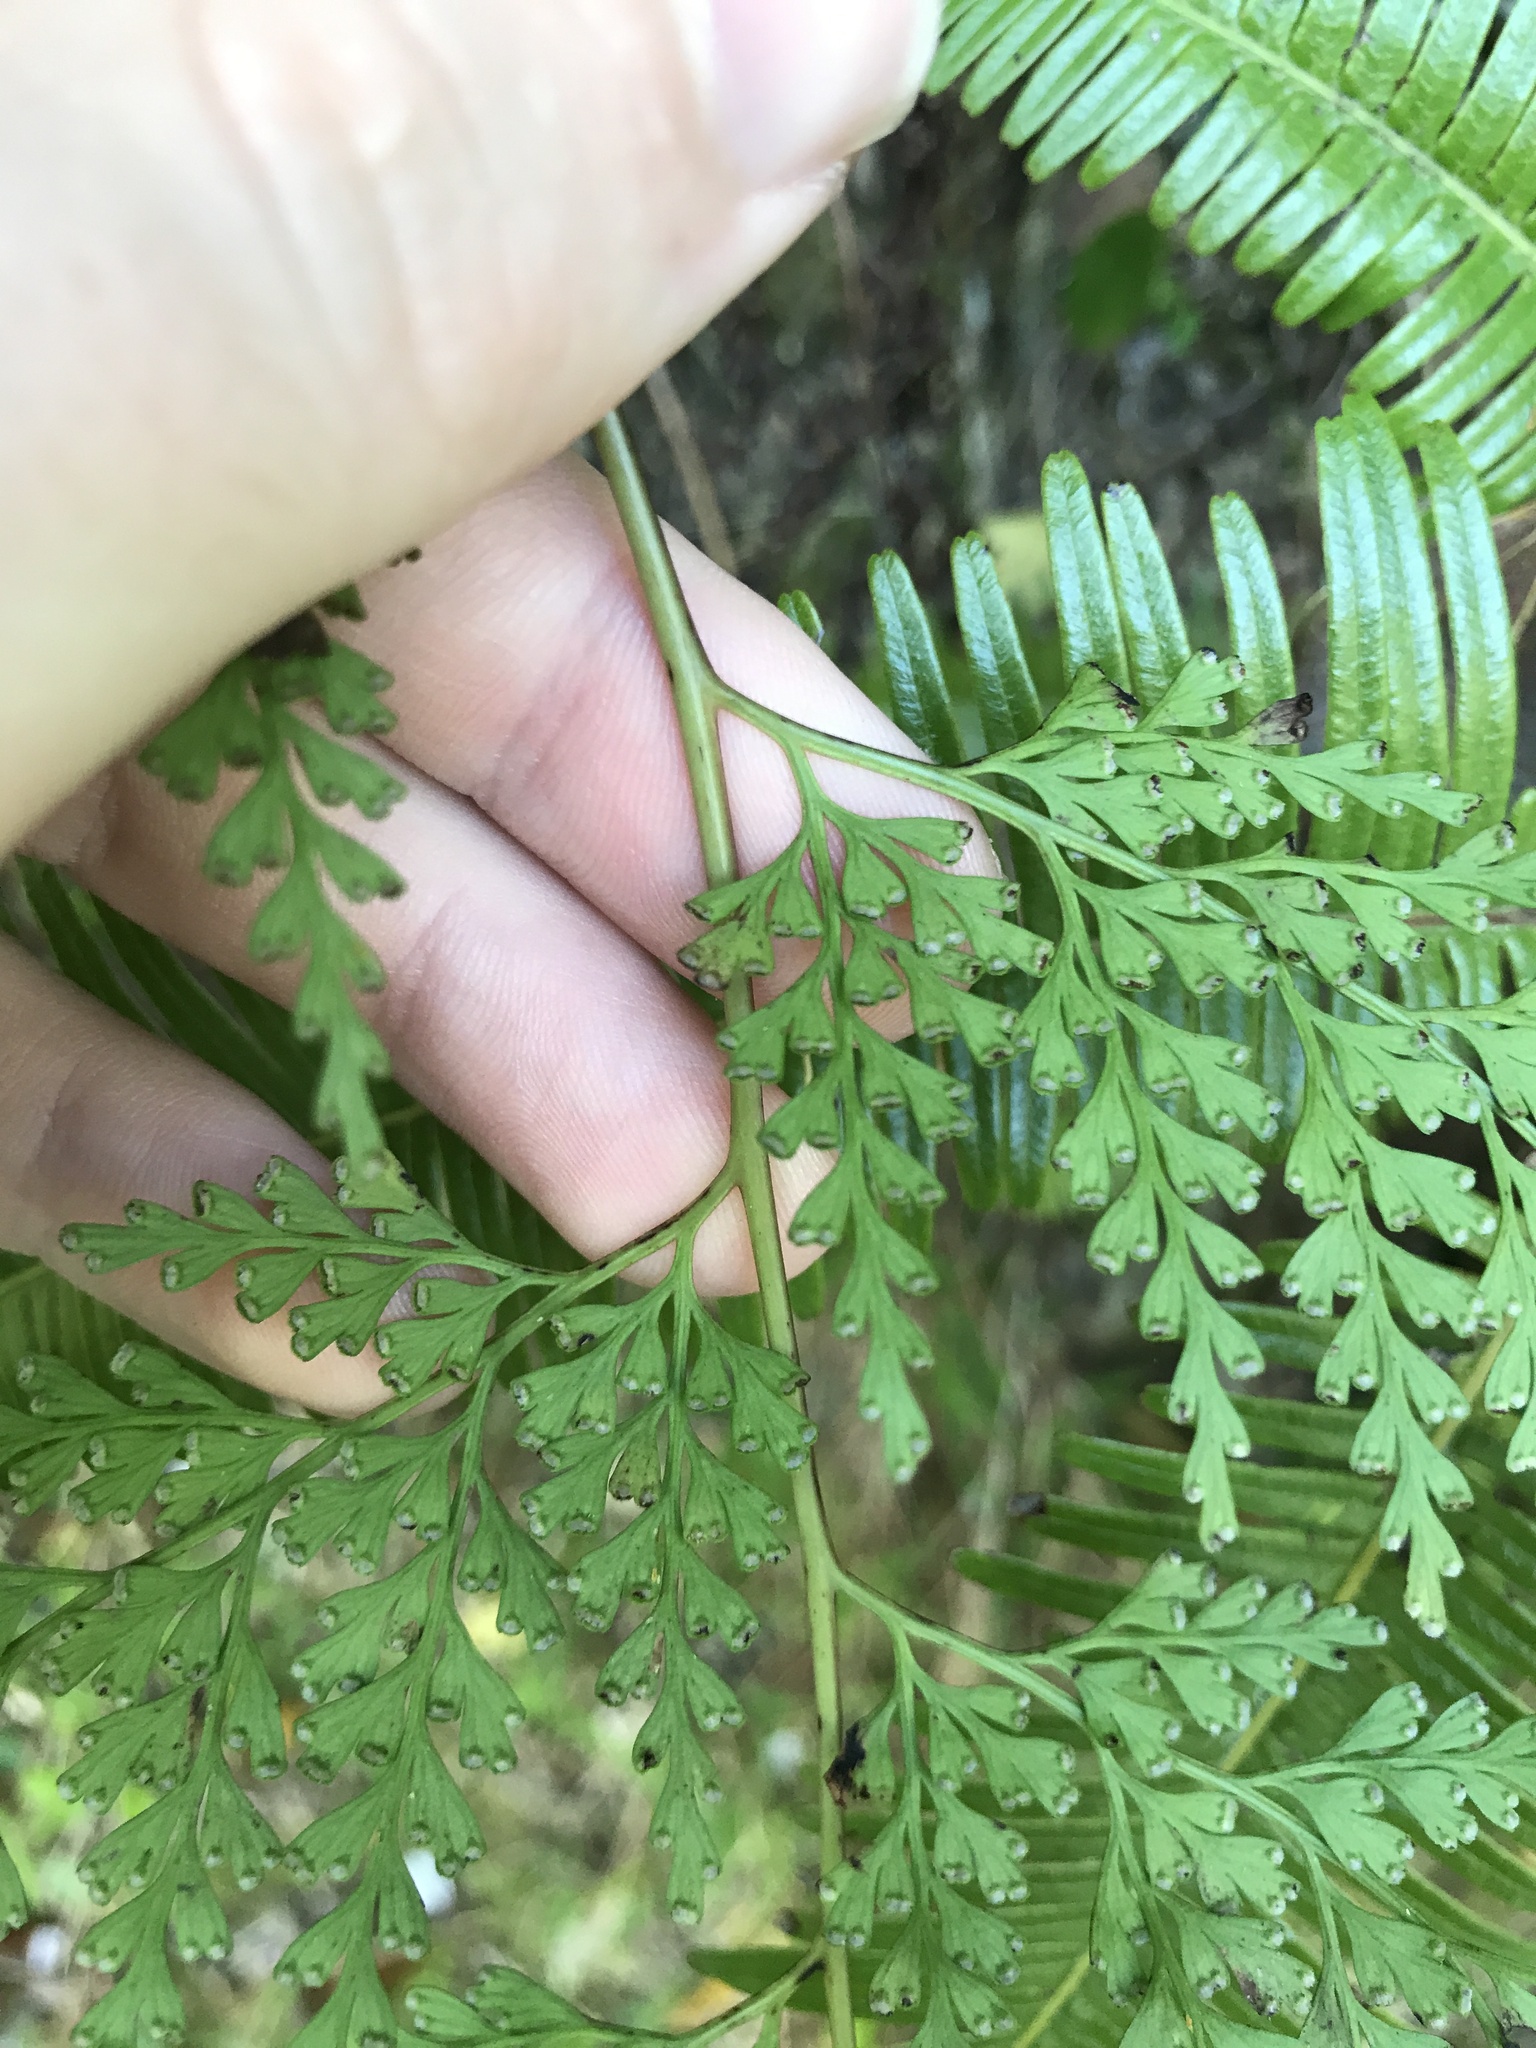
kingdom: Plantae
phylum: Tracheophyta
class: Polypodiopsida
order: Polypodiales
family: Lindsaeaceae
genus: Odontosoria
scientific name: Odontosoria chinensis
